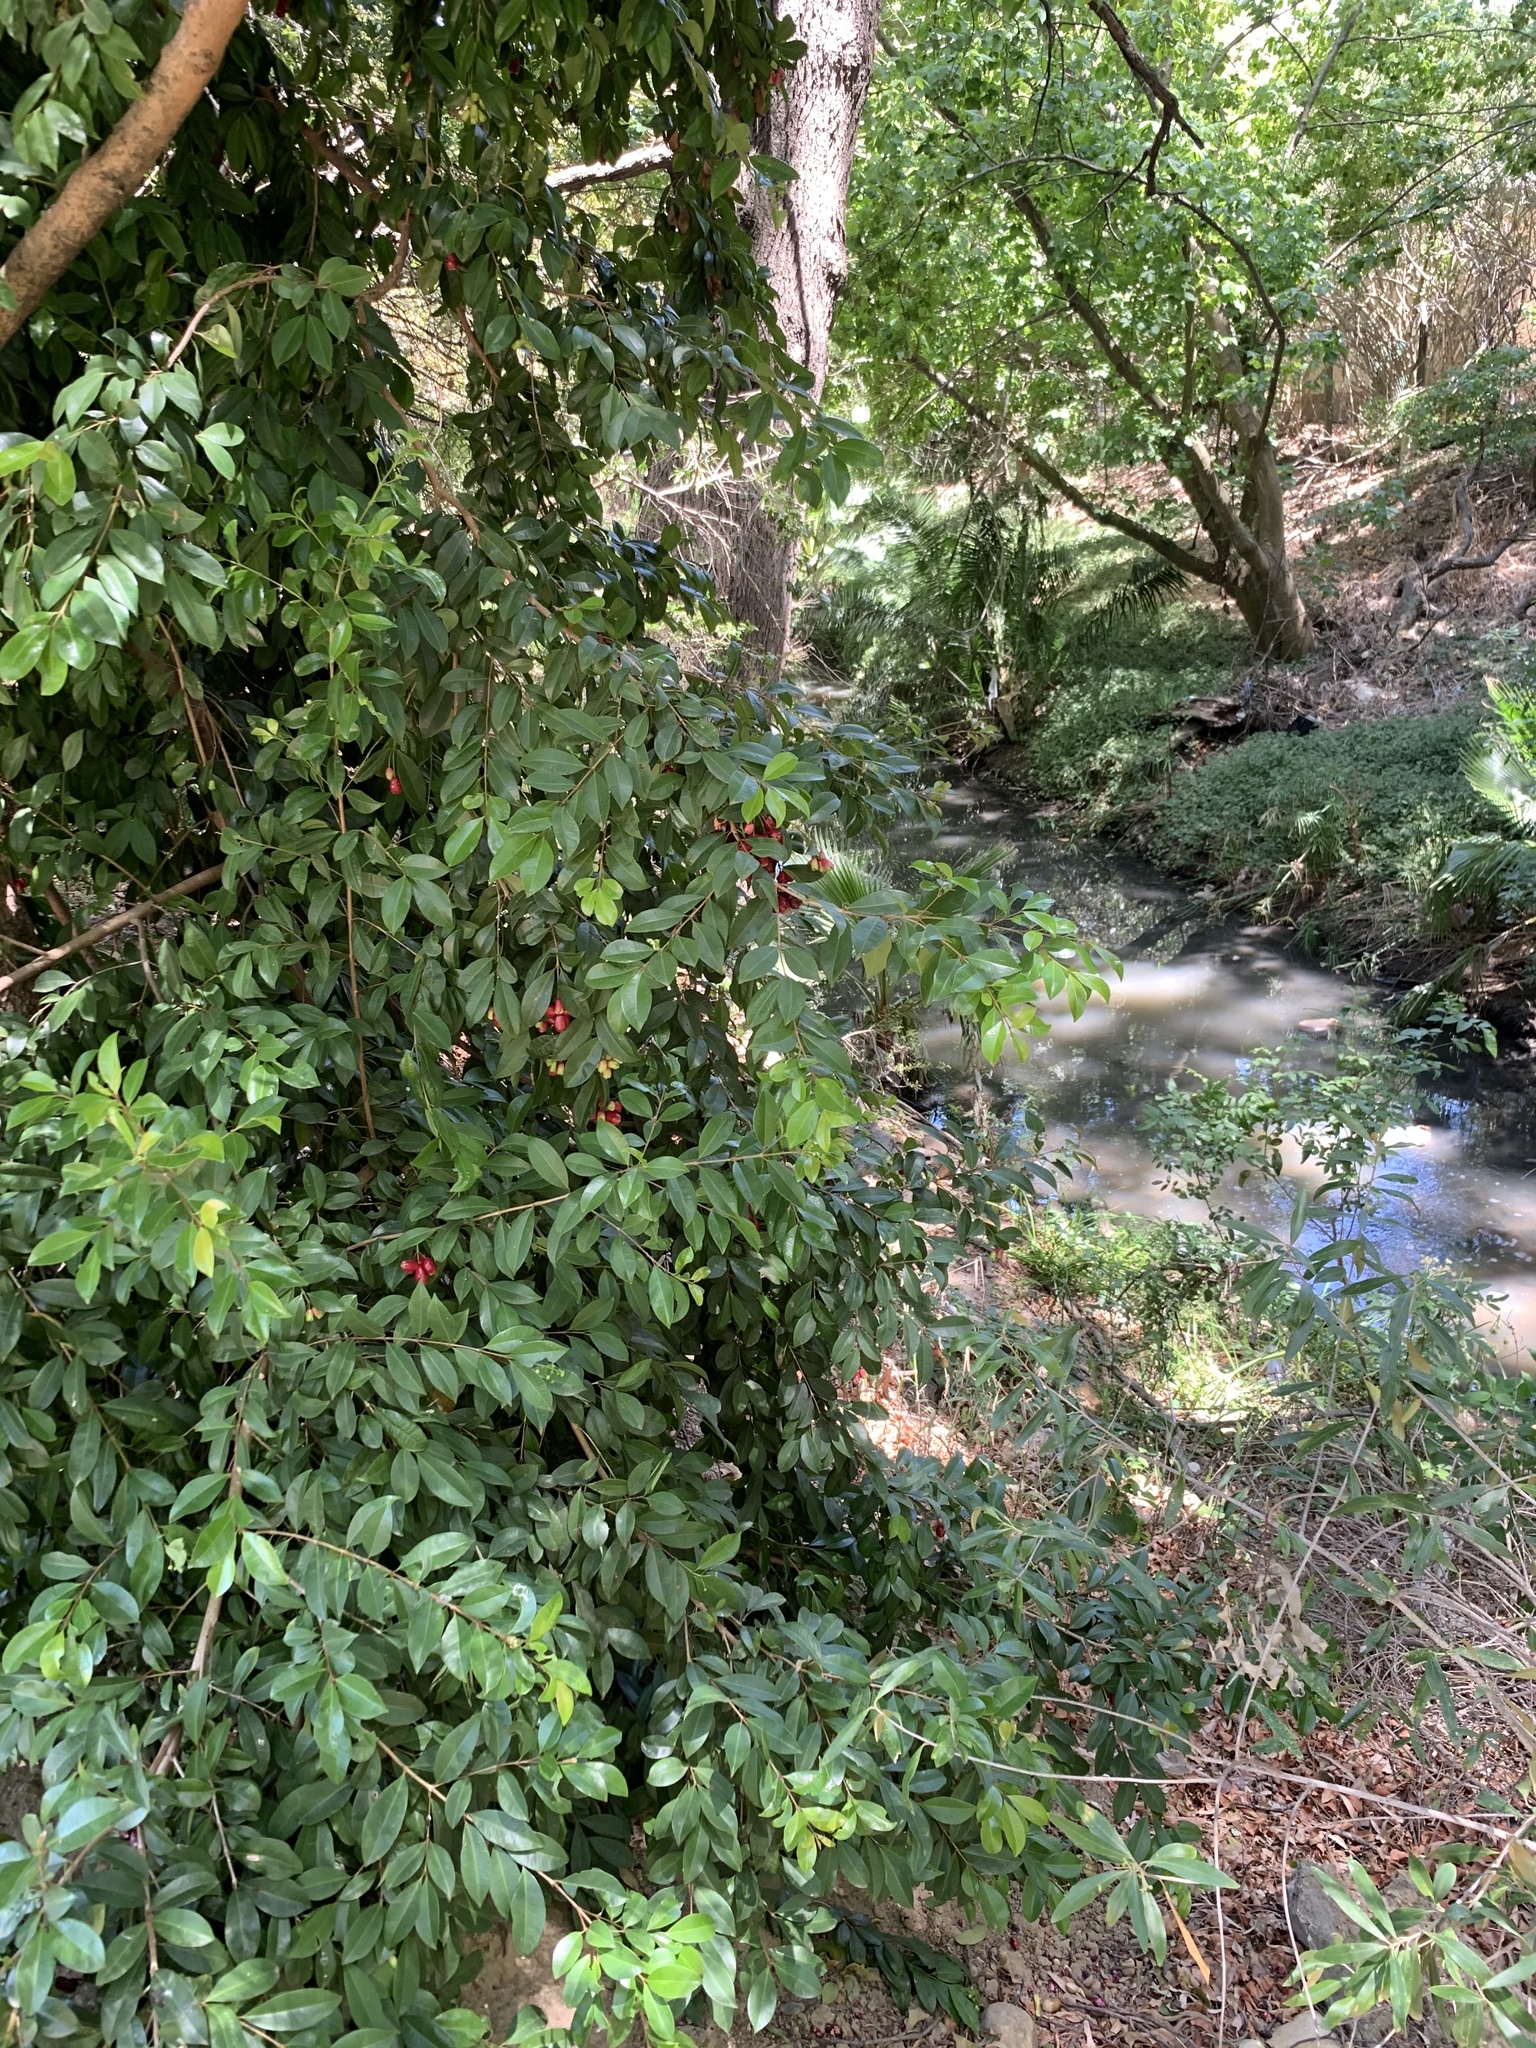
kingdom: Plantae
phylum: Tracheophyta
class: Magnoliopsida
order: Myrtales
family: Myrtaceae
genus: Syzygium
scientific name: Syzygium australe
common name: Australian brush-cherry
